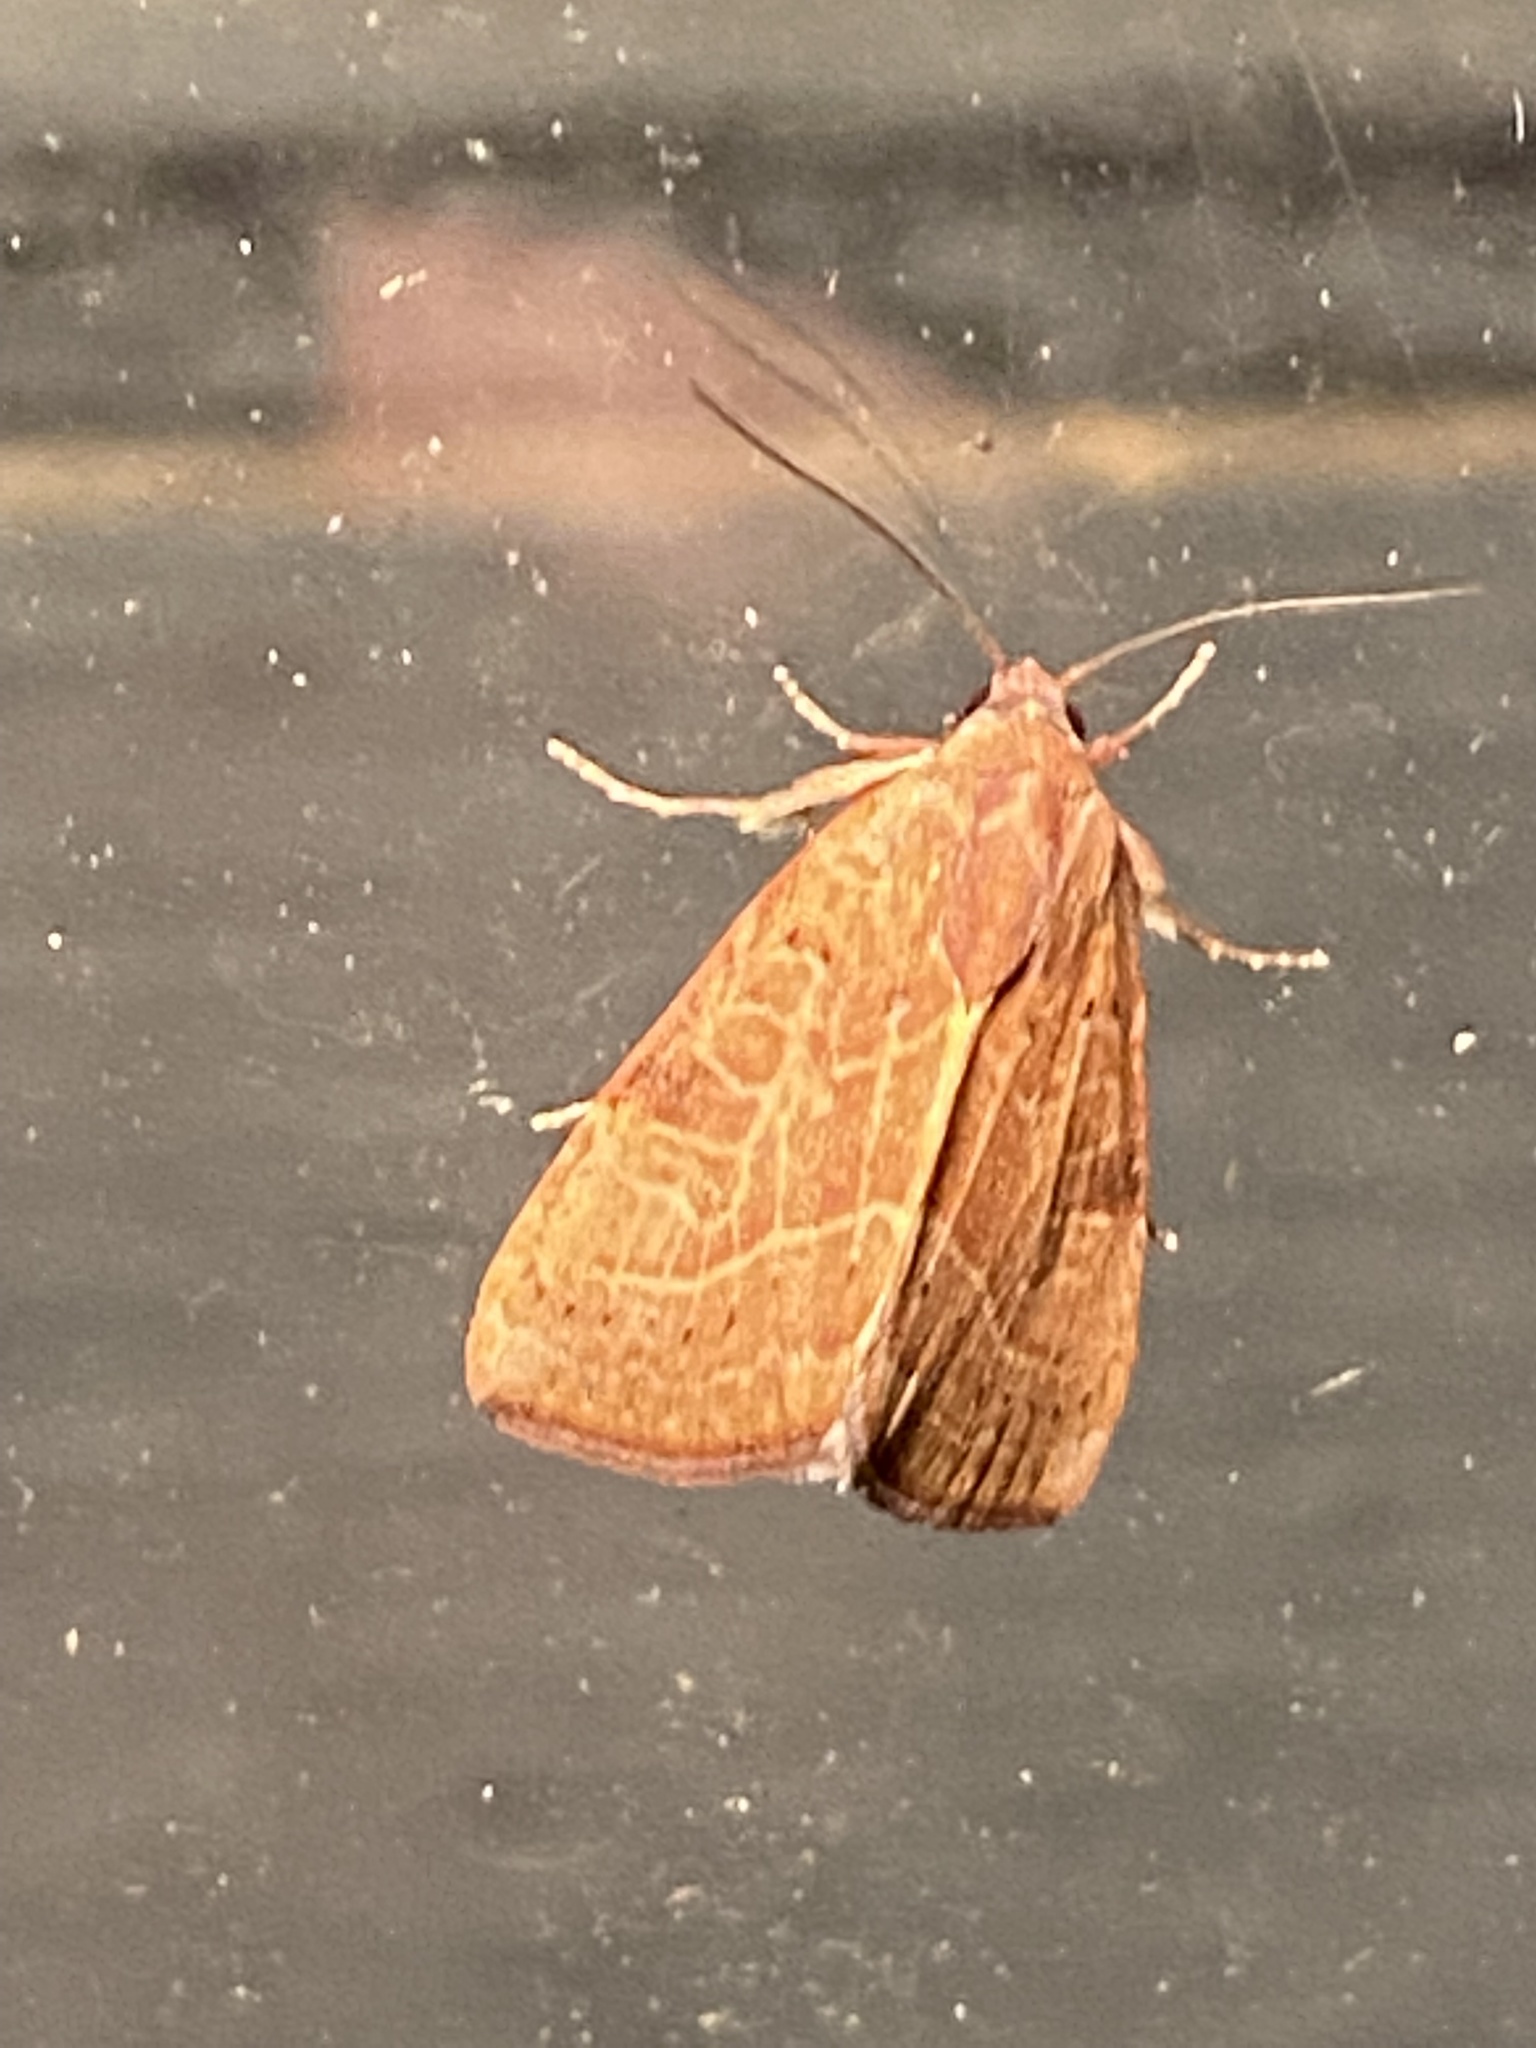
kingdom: Animalia
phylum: Arthropoda
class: Insecta
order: Lepidoptera
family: Noctuidae
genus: Galgula
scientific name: Galgula partita
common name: Wedgeling
